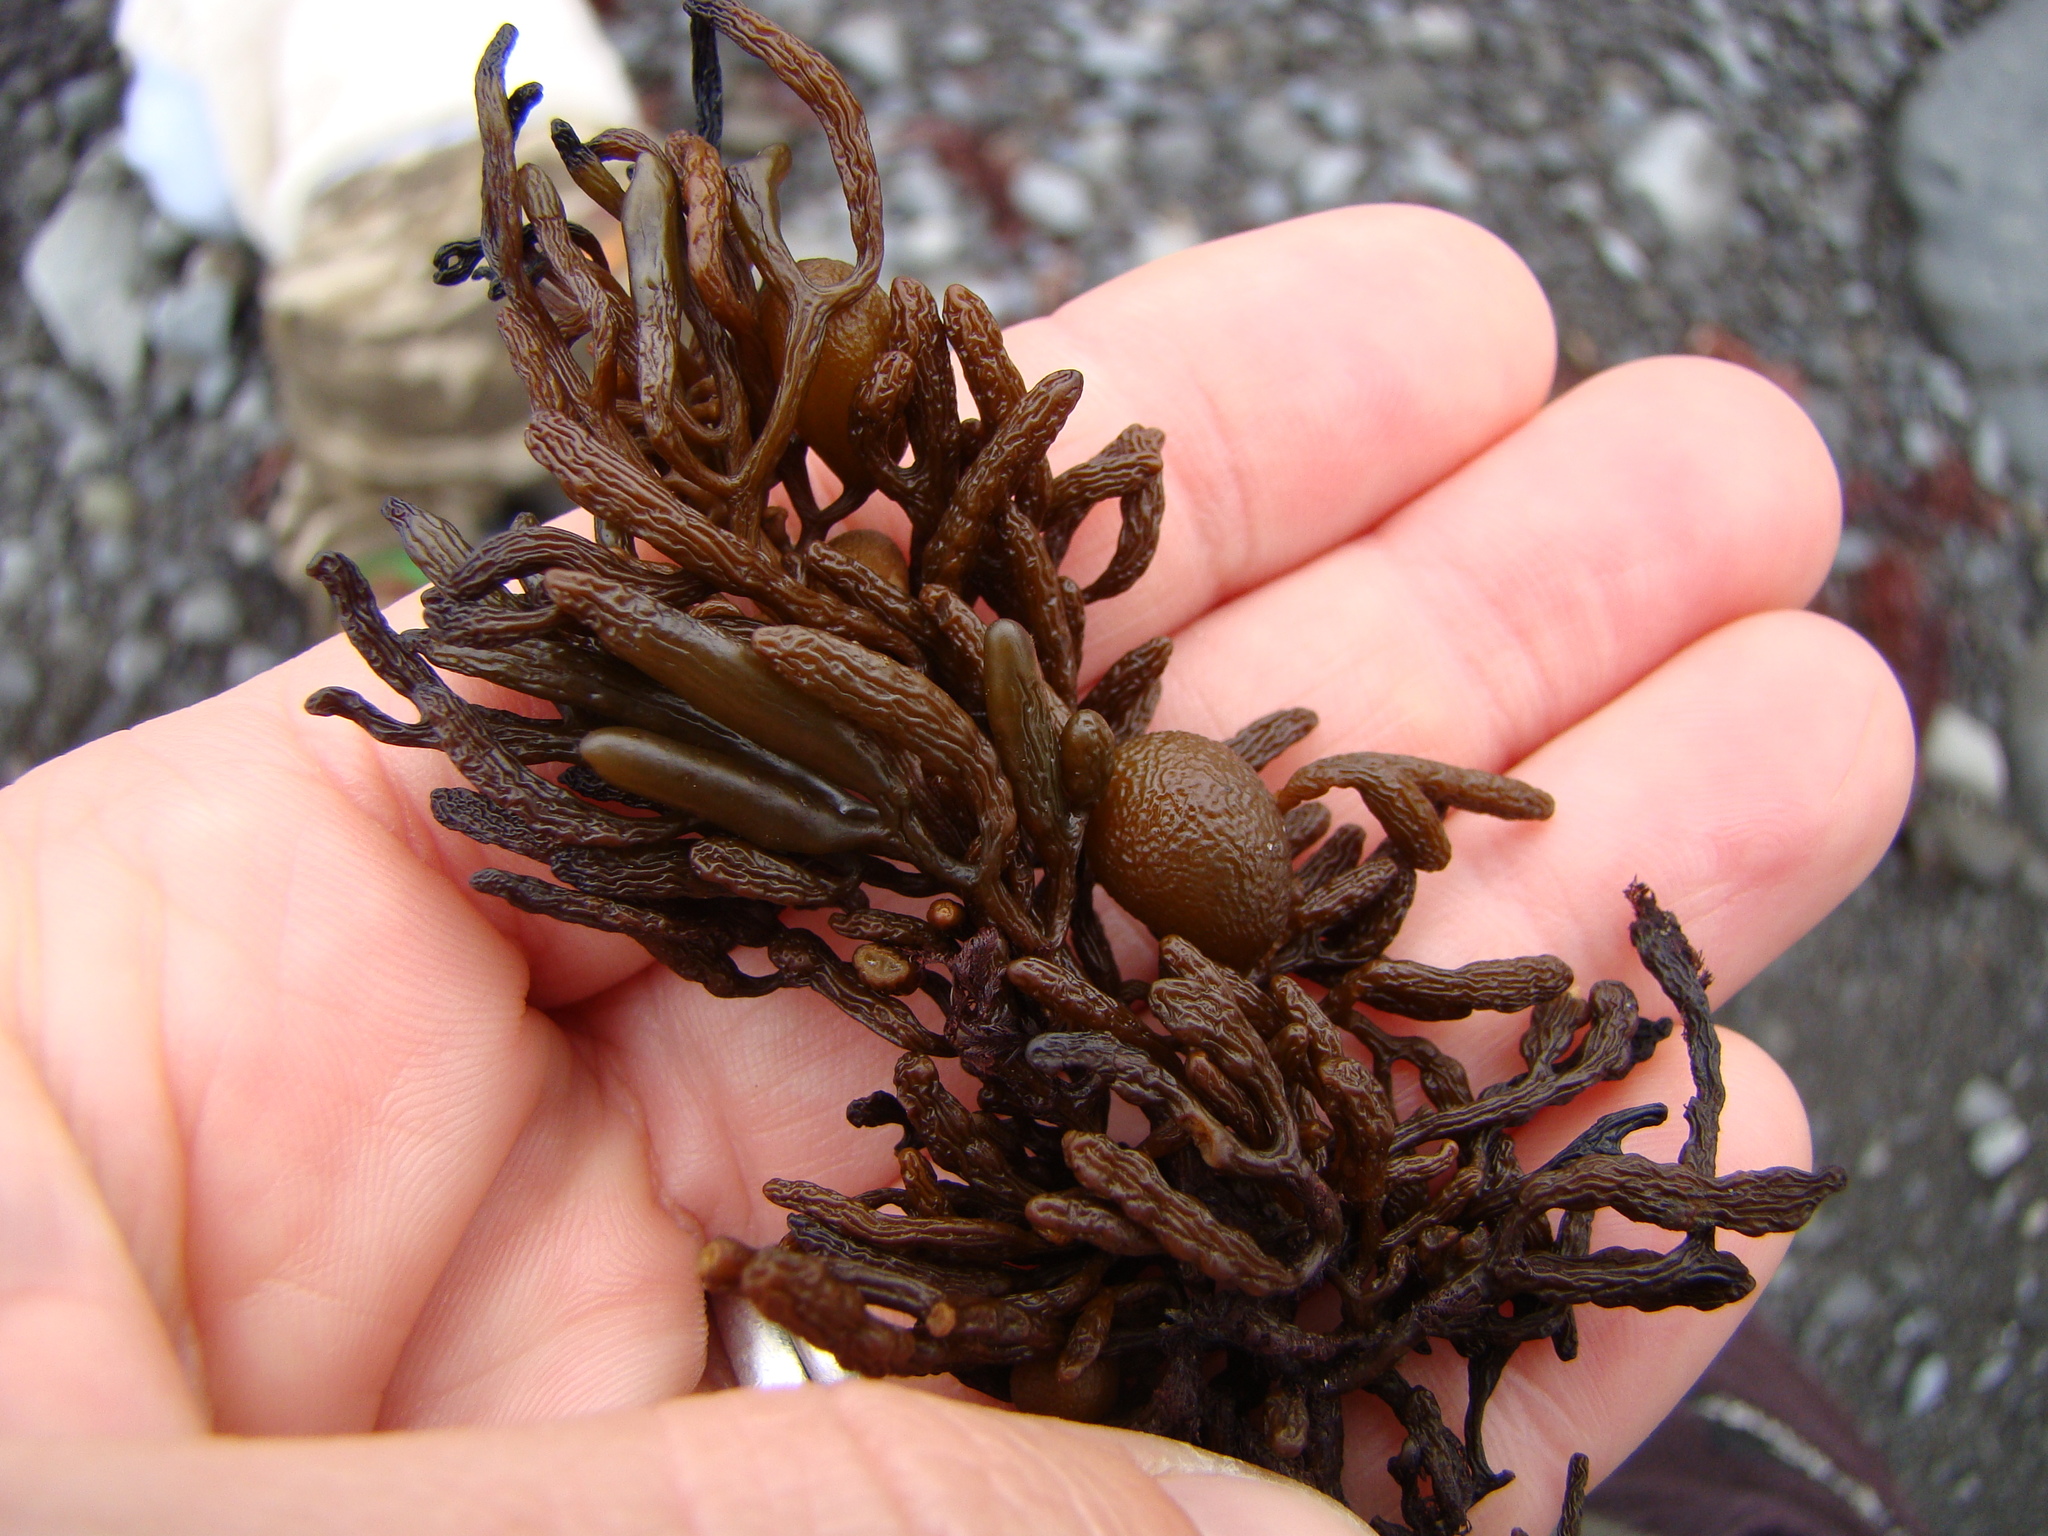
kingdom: Chromista
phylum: Ochrophyta
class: Phaeophyceae
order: Fucales
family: Sargassaceae
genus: Cystophora
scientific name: Cystophora torulosa
